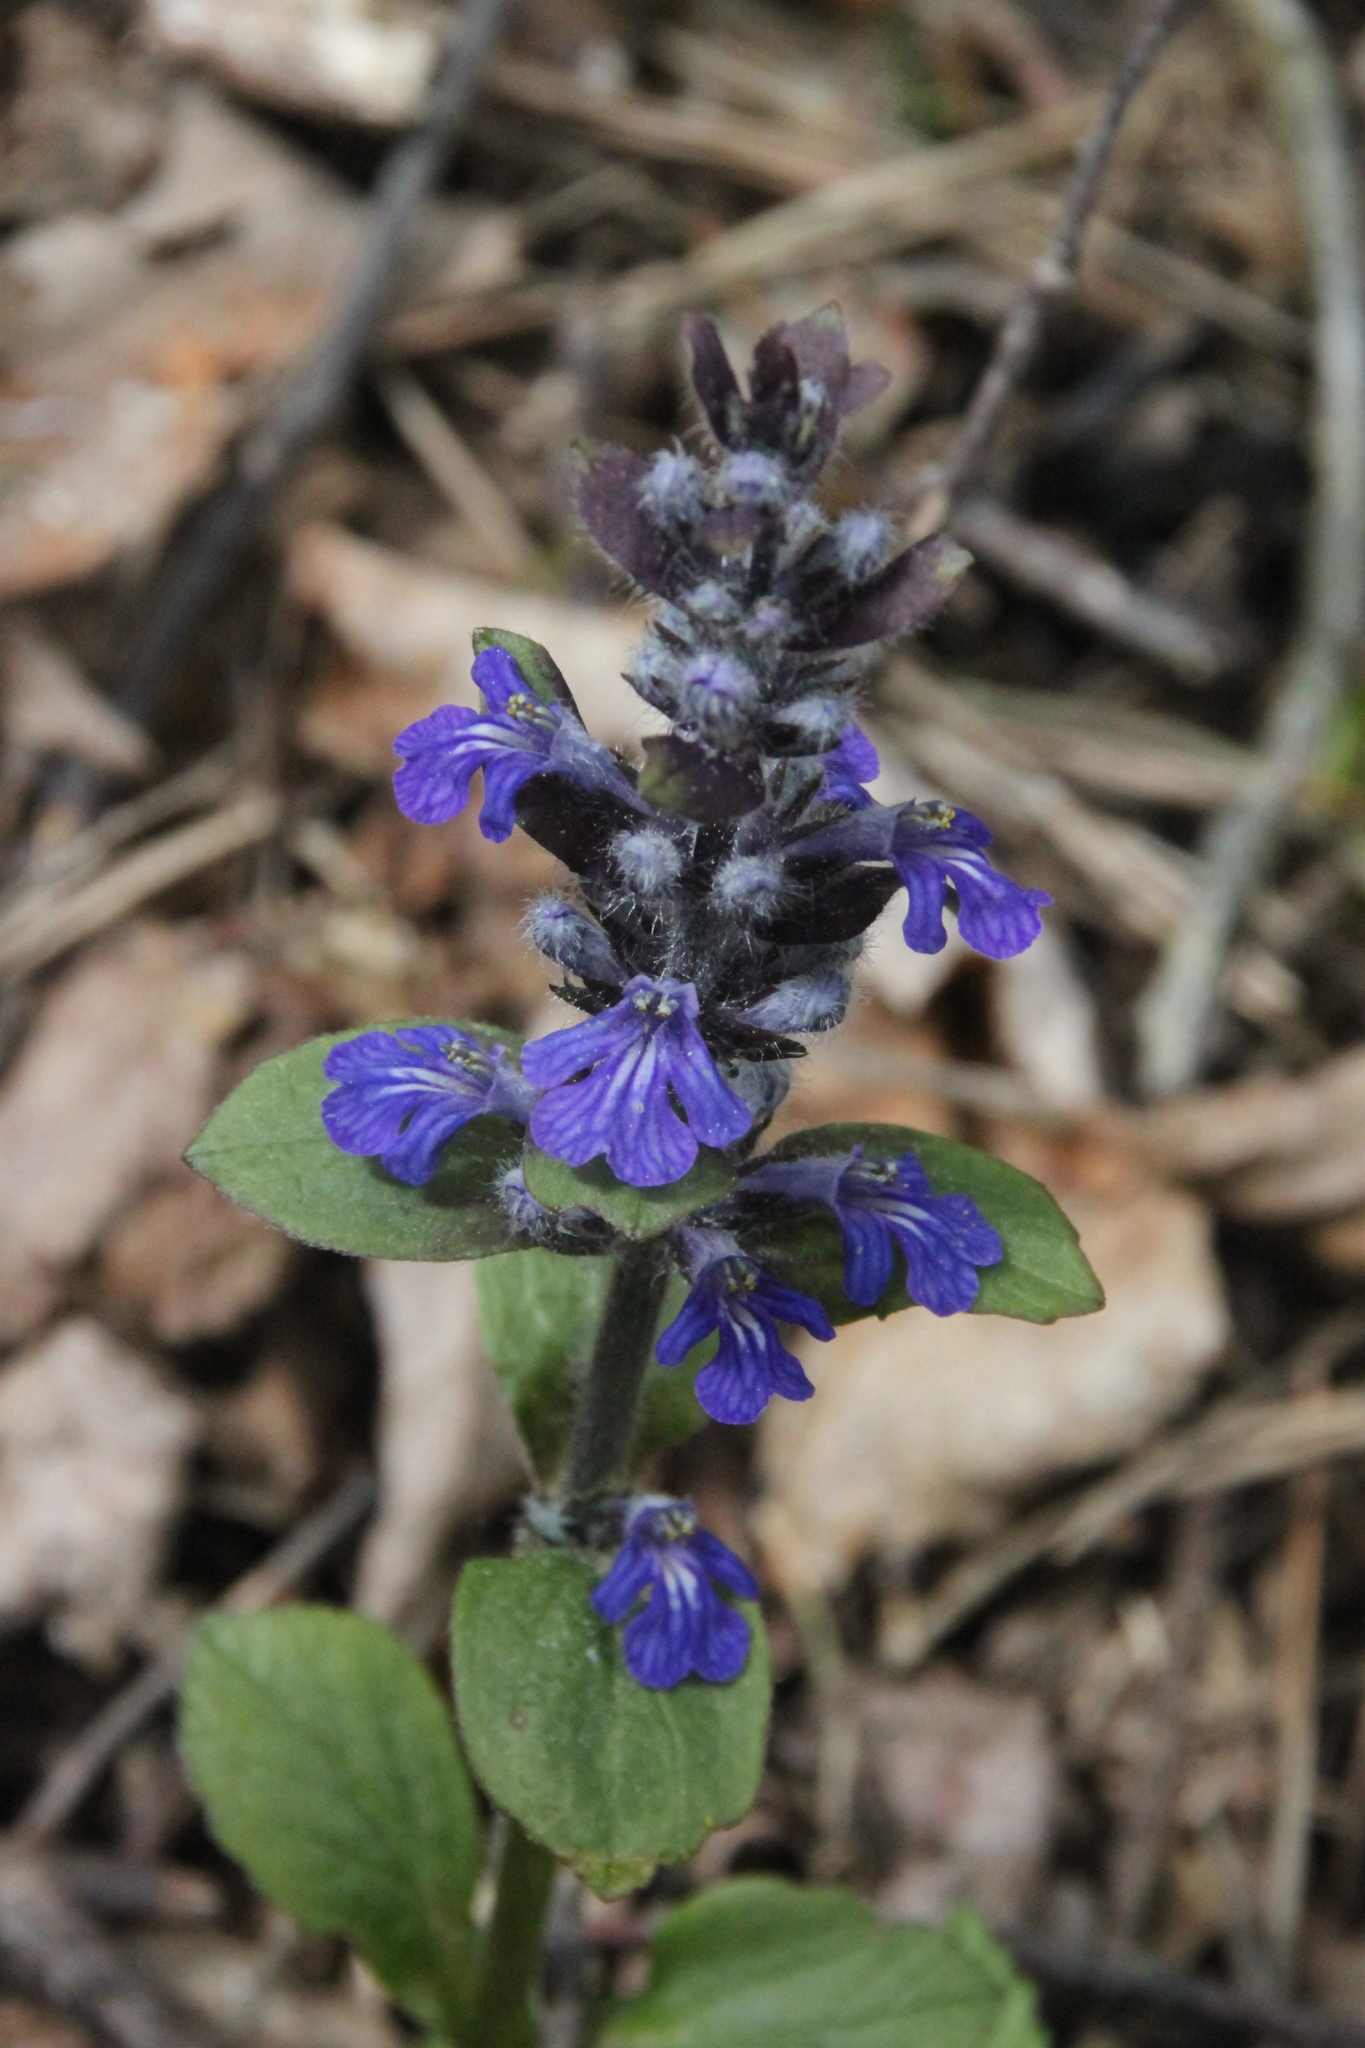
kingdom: Plantae
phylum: Tracheophyta
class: Magnoliopsida
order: Lamiales
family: Lamiaceae
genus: Ajuga
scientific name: Ajuga reptans
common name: Bugle
